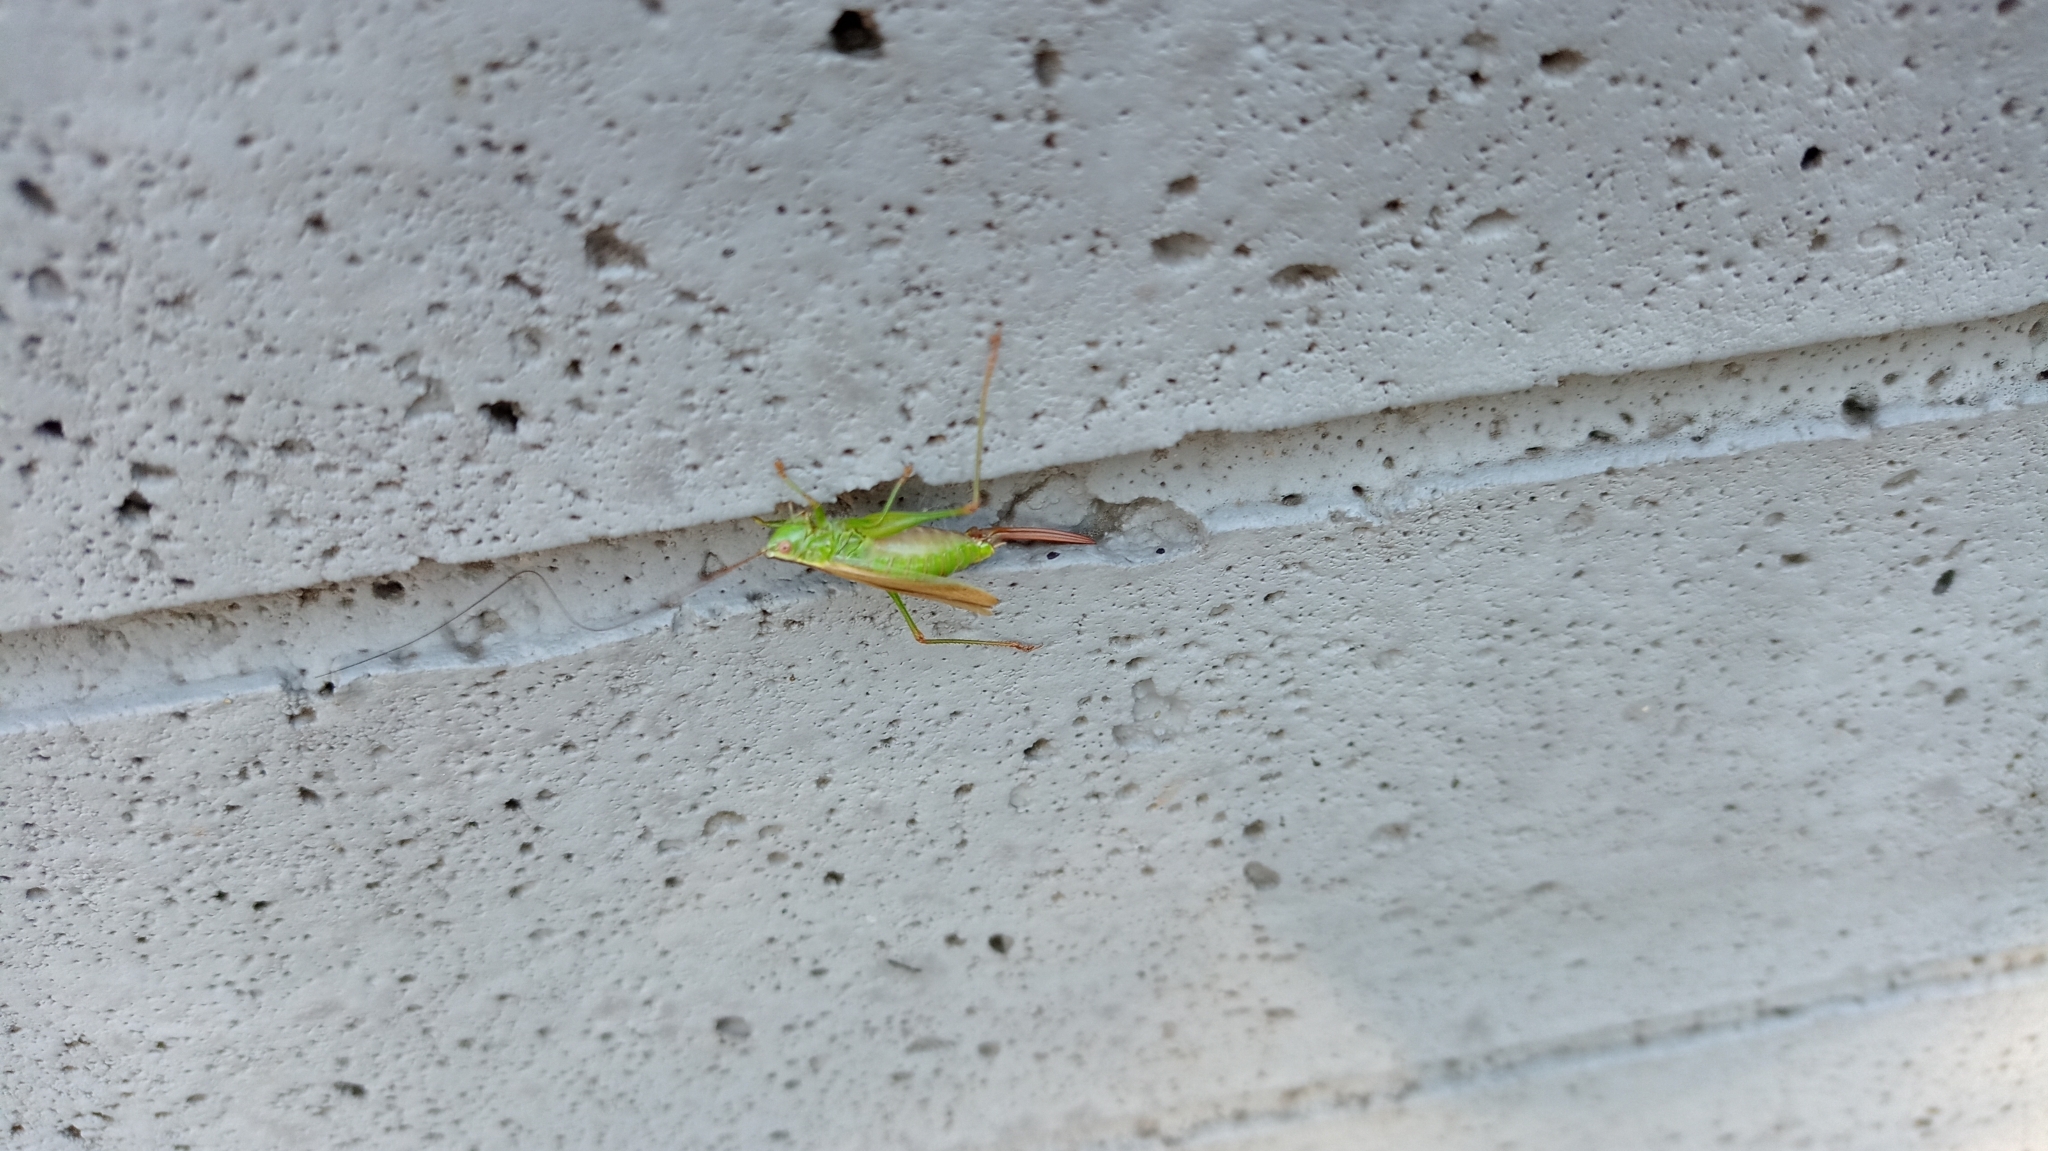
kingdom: Animalia
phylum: Arthropoda
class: Insecta
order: Orthoptera
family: Tettigoniidae
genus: Conocephalus
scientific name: Conocephalus fuscus
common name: Long-winged conehead
